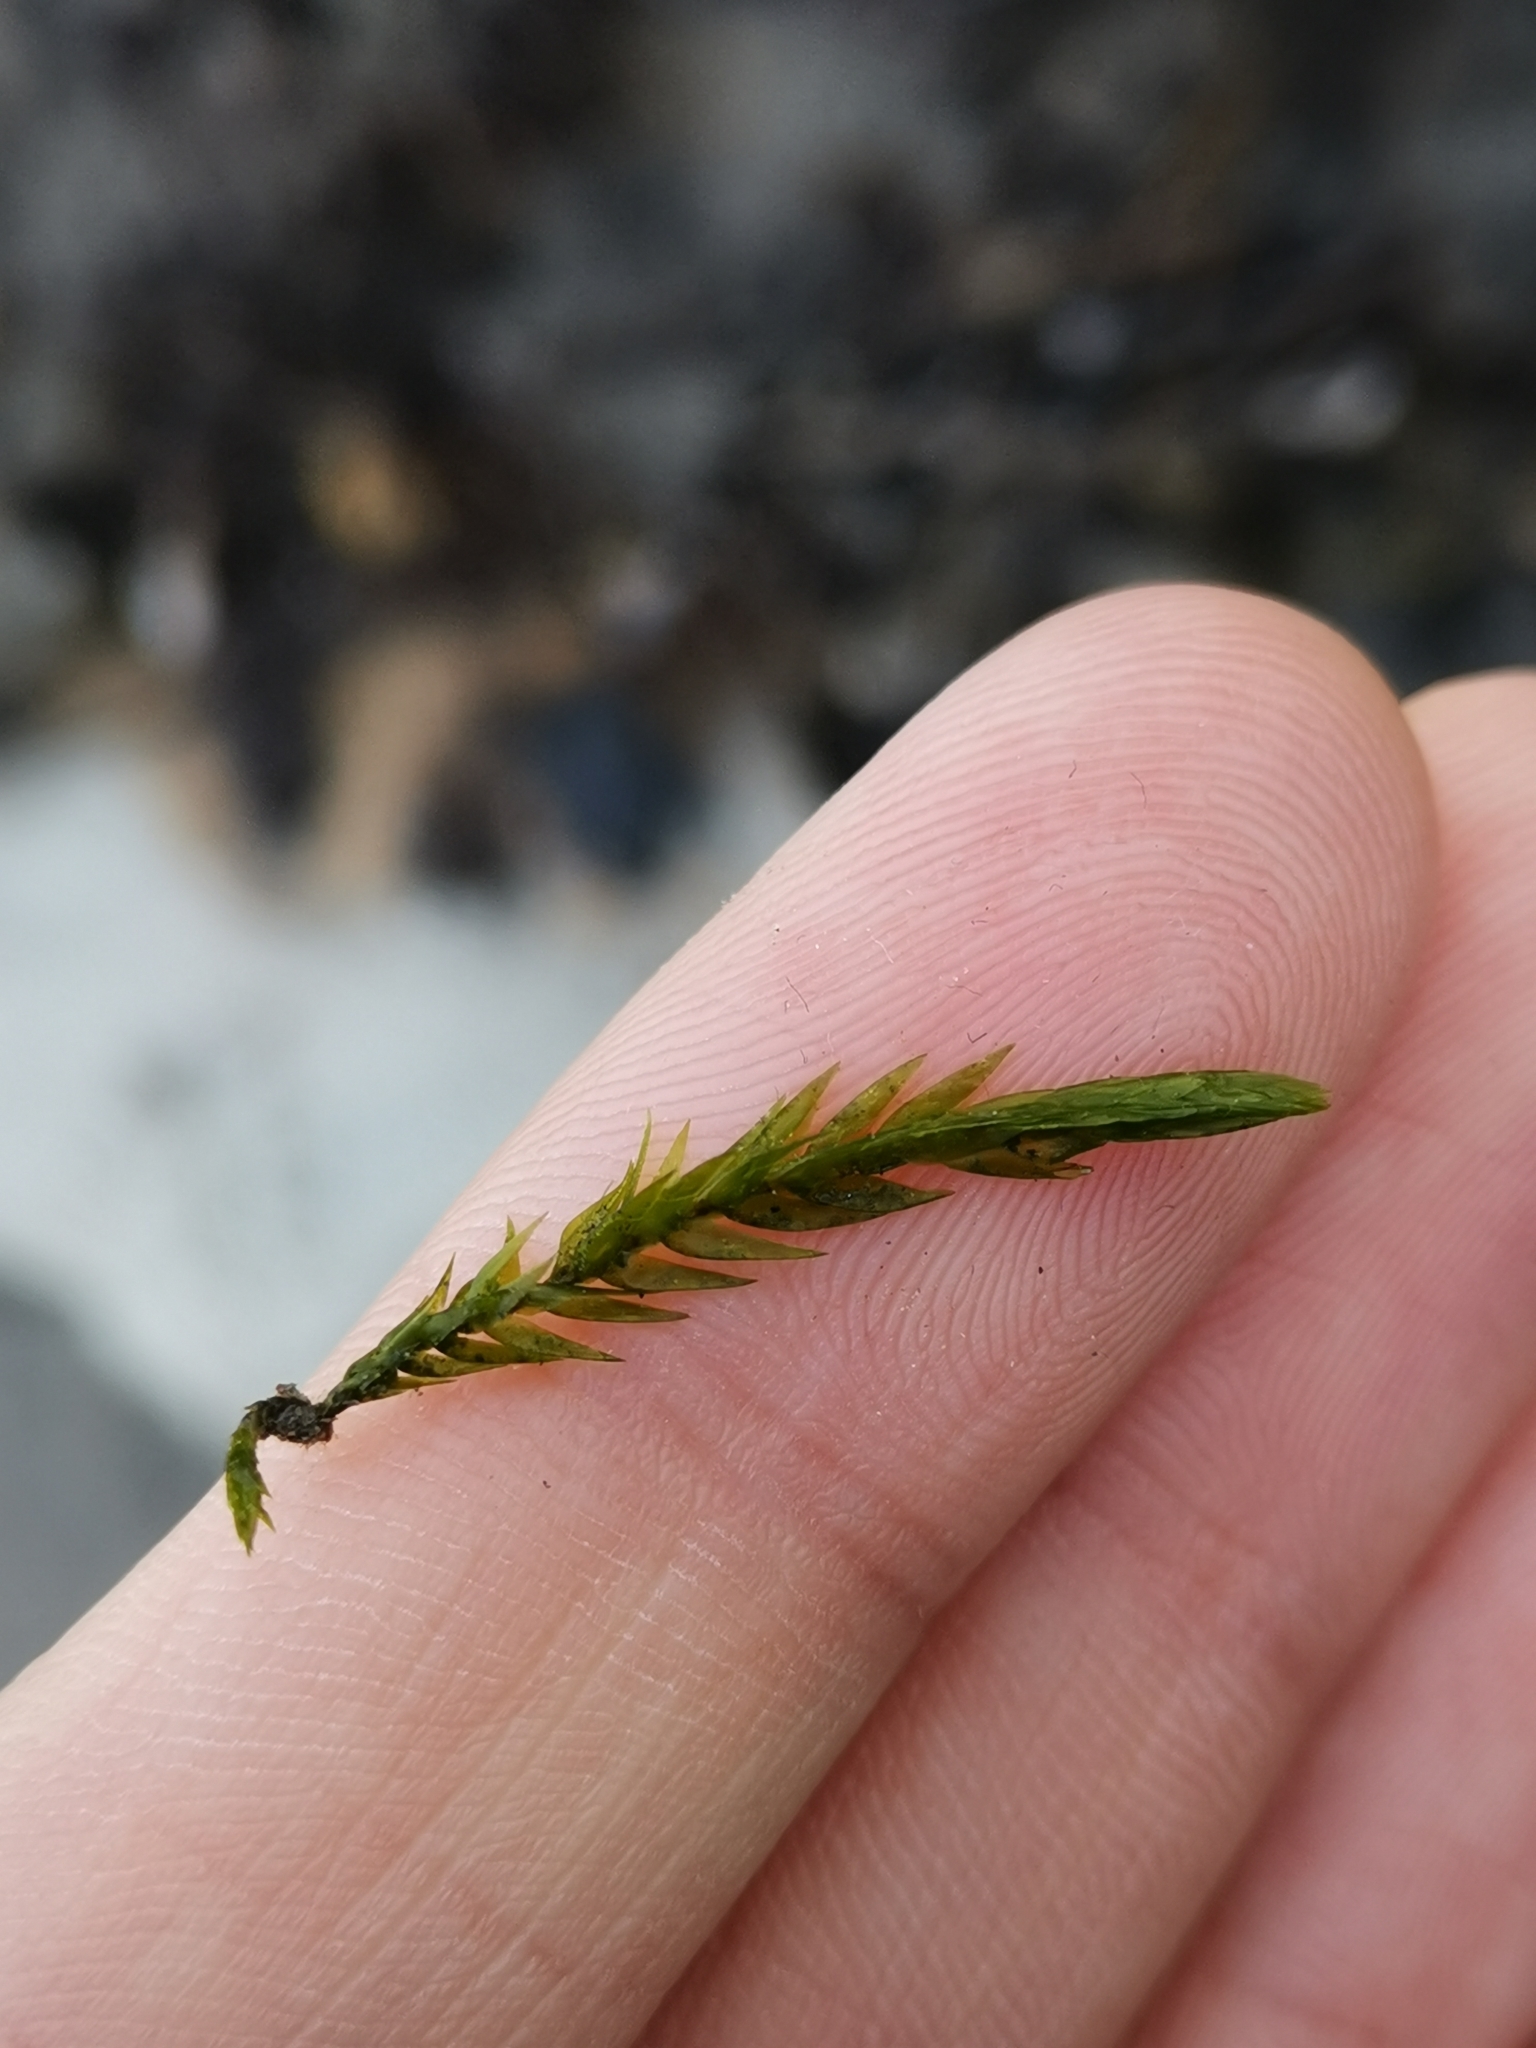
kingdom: Plantae
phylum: Bryophyta
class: Bryopsida
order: Hypnales
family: Fontinalaceae
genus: Fontinalis
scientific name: Fontinalis antipyretica
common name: Greater water-moss
